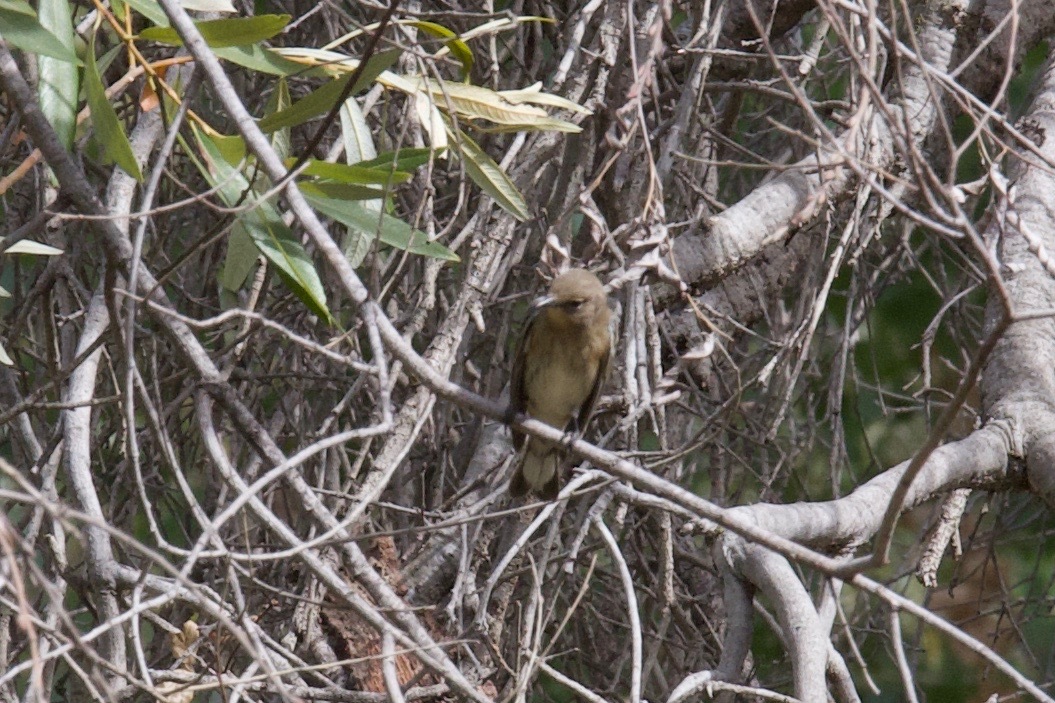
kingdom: Animalia
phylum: Chordata
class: Aves
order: Passeriformes
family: Parulidae
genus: Setophaga
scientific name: Setophaga auduboni
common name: Audubon's warbler
